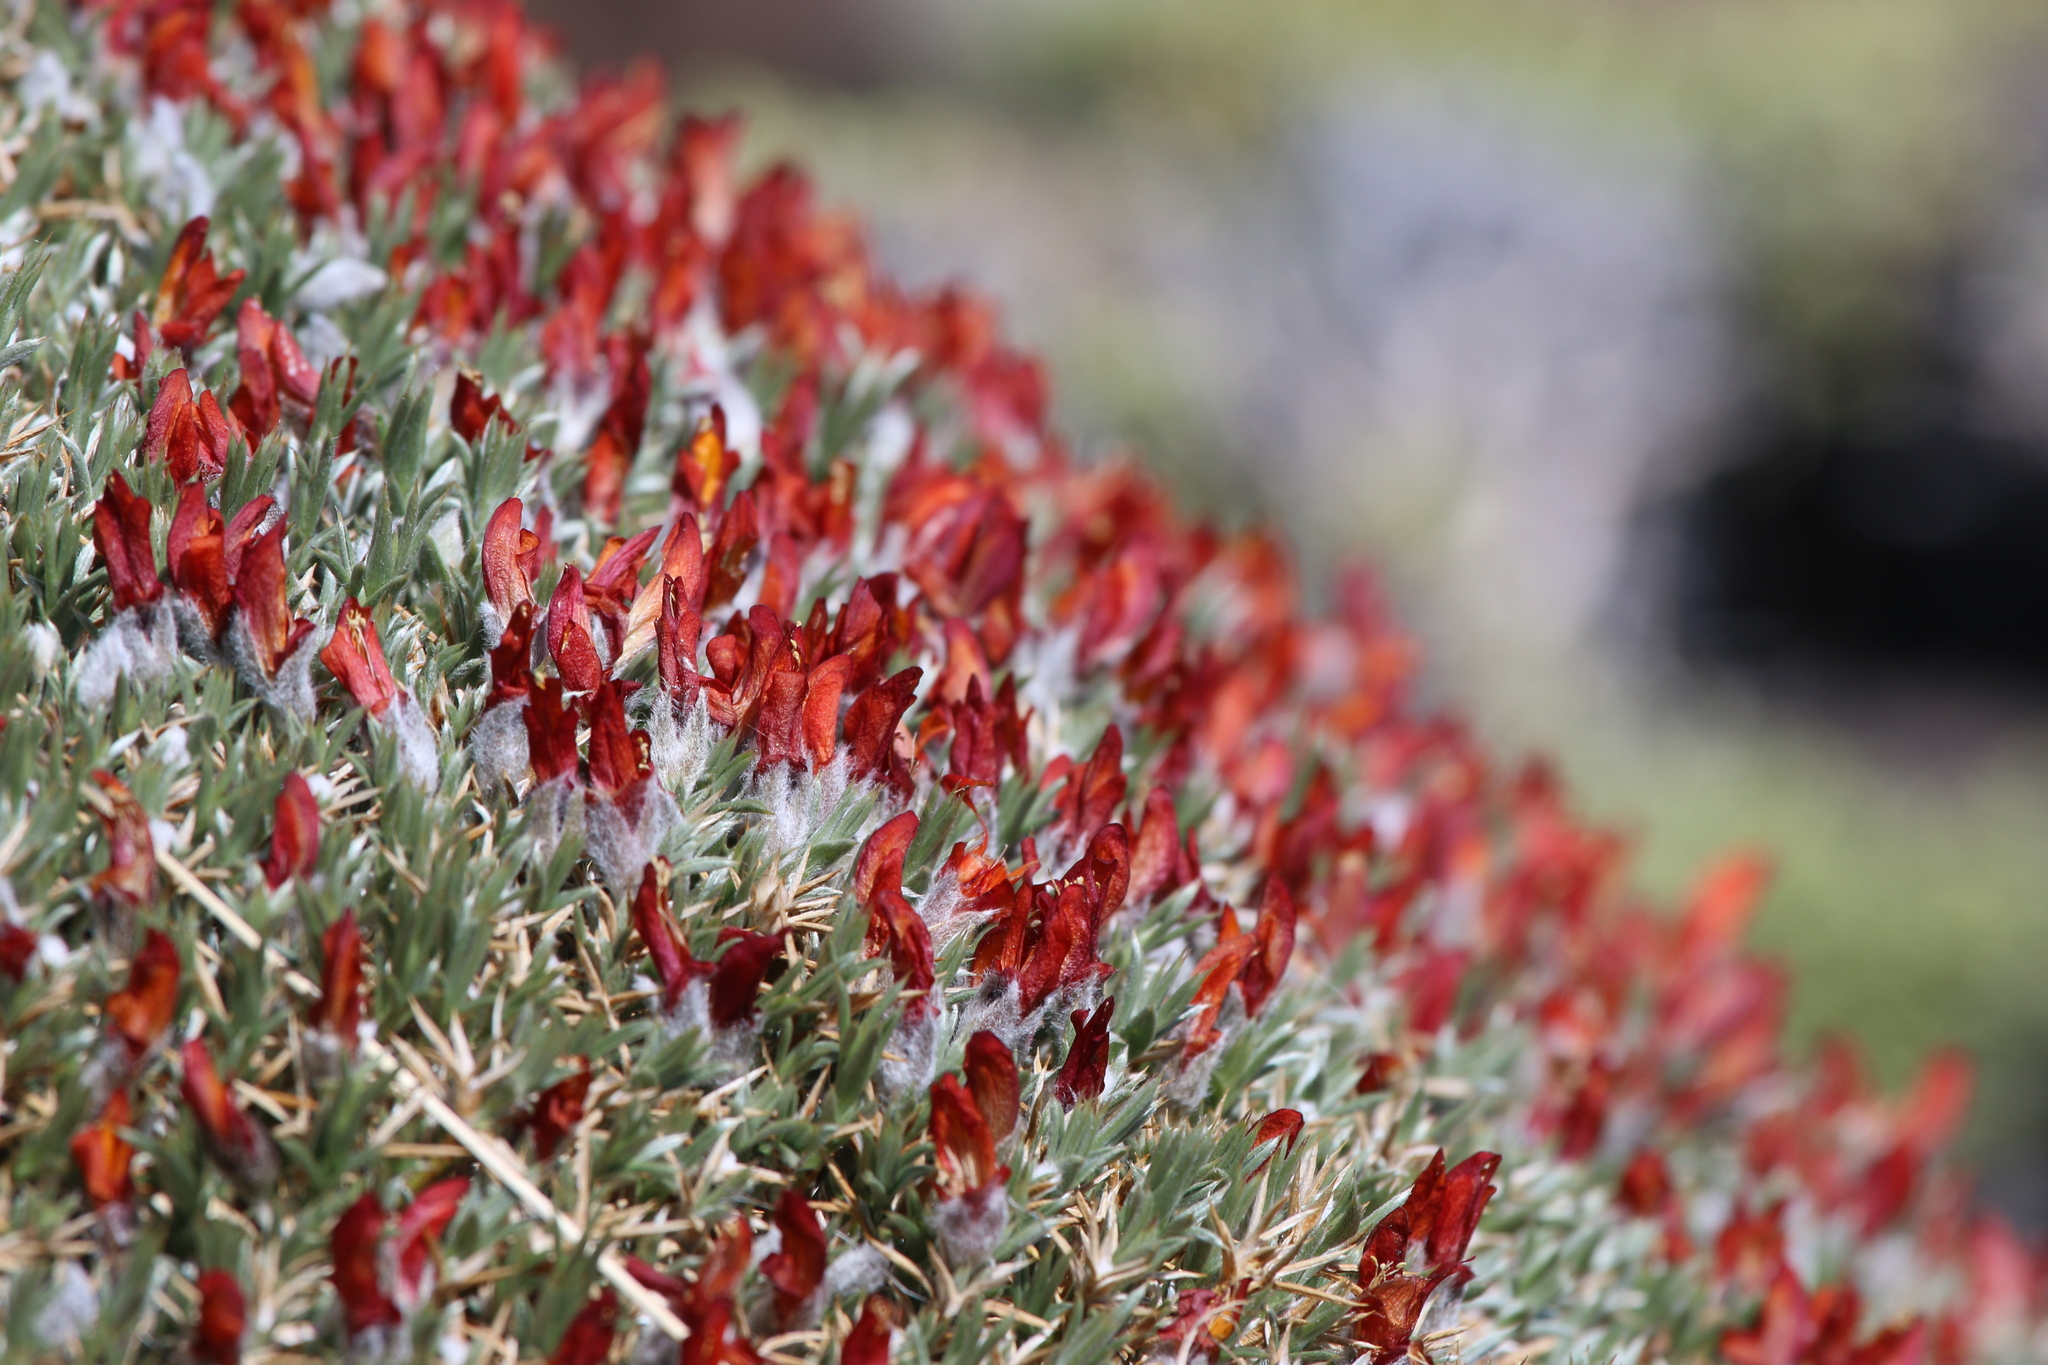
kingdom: Plantae
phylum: Tracheophyta
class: Magnoliopsida
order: Fabales
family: Fabaceae
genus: Anarthrophyllum
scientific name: Anarthrophyllum desideratum
